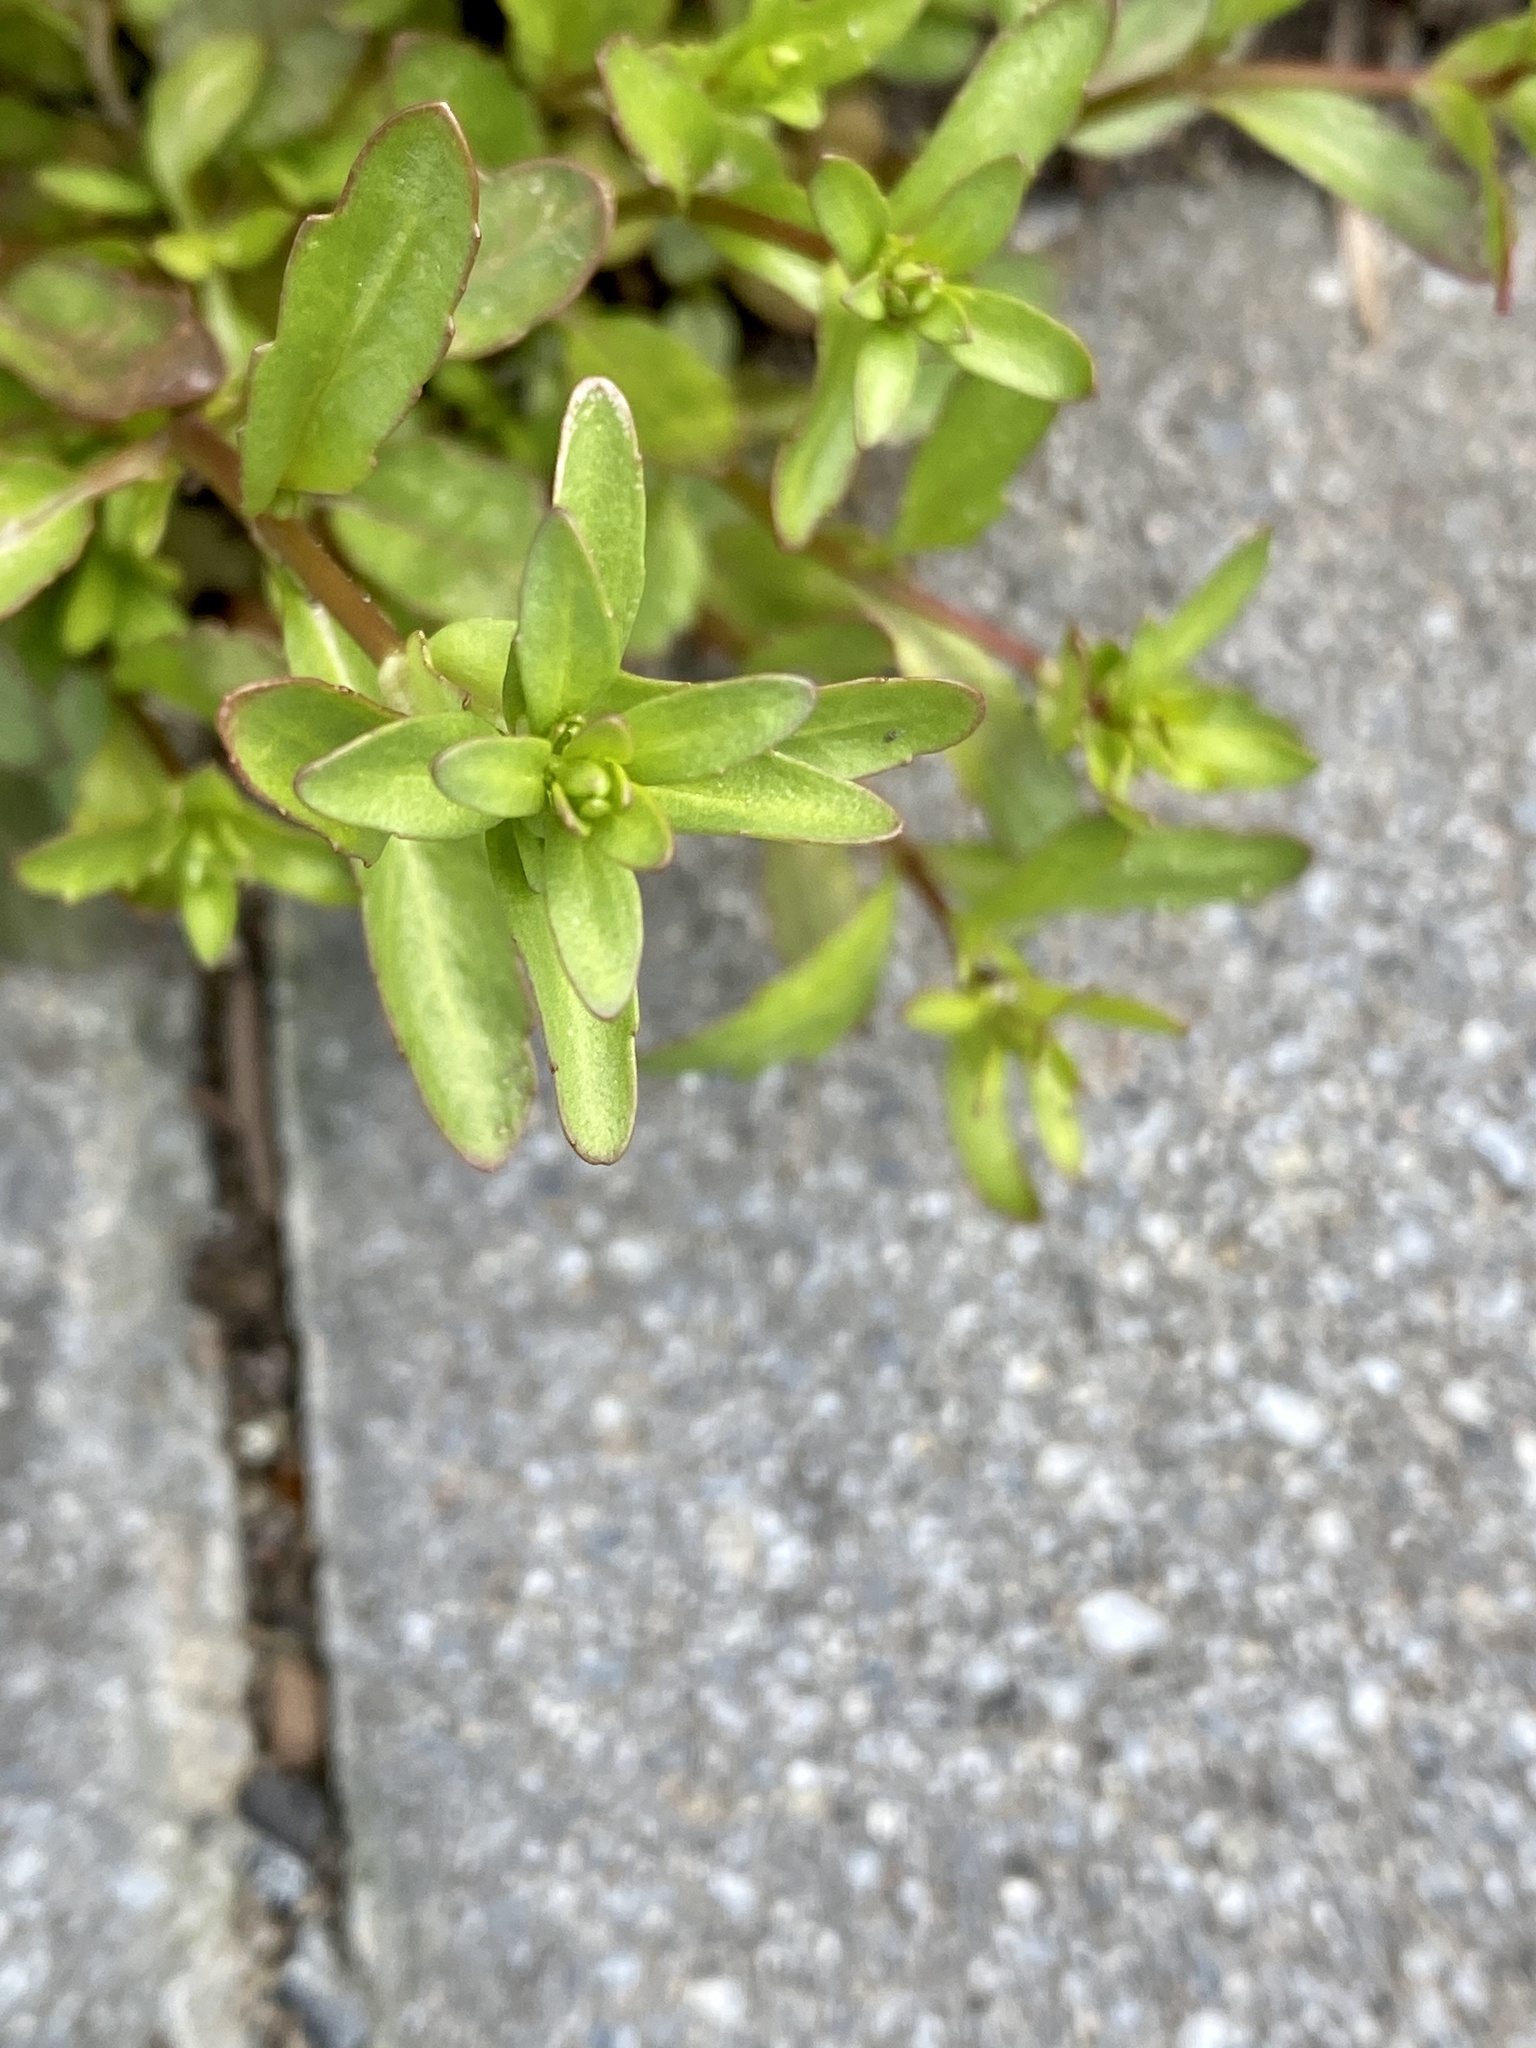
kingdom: Plantae
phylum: Tracheophyta
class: Magnoliopsida
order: Lamiales
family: Plantaginaceae
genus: Veronica
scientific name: Veronica peregrina
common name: Neckweed
